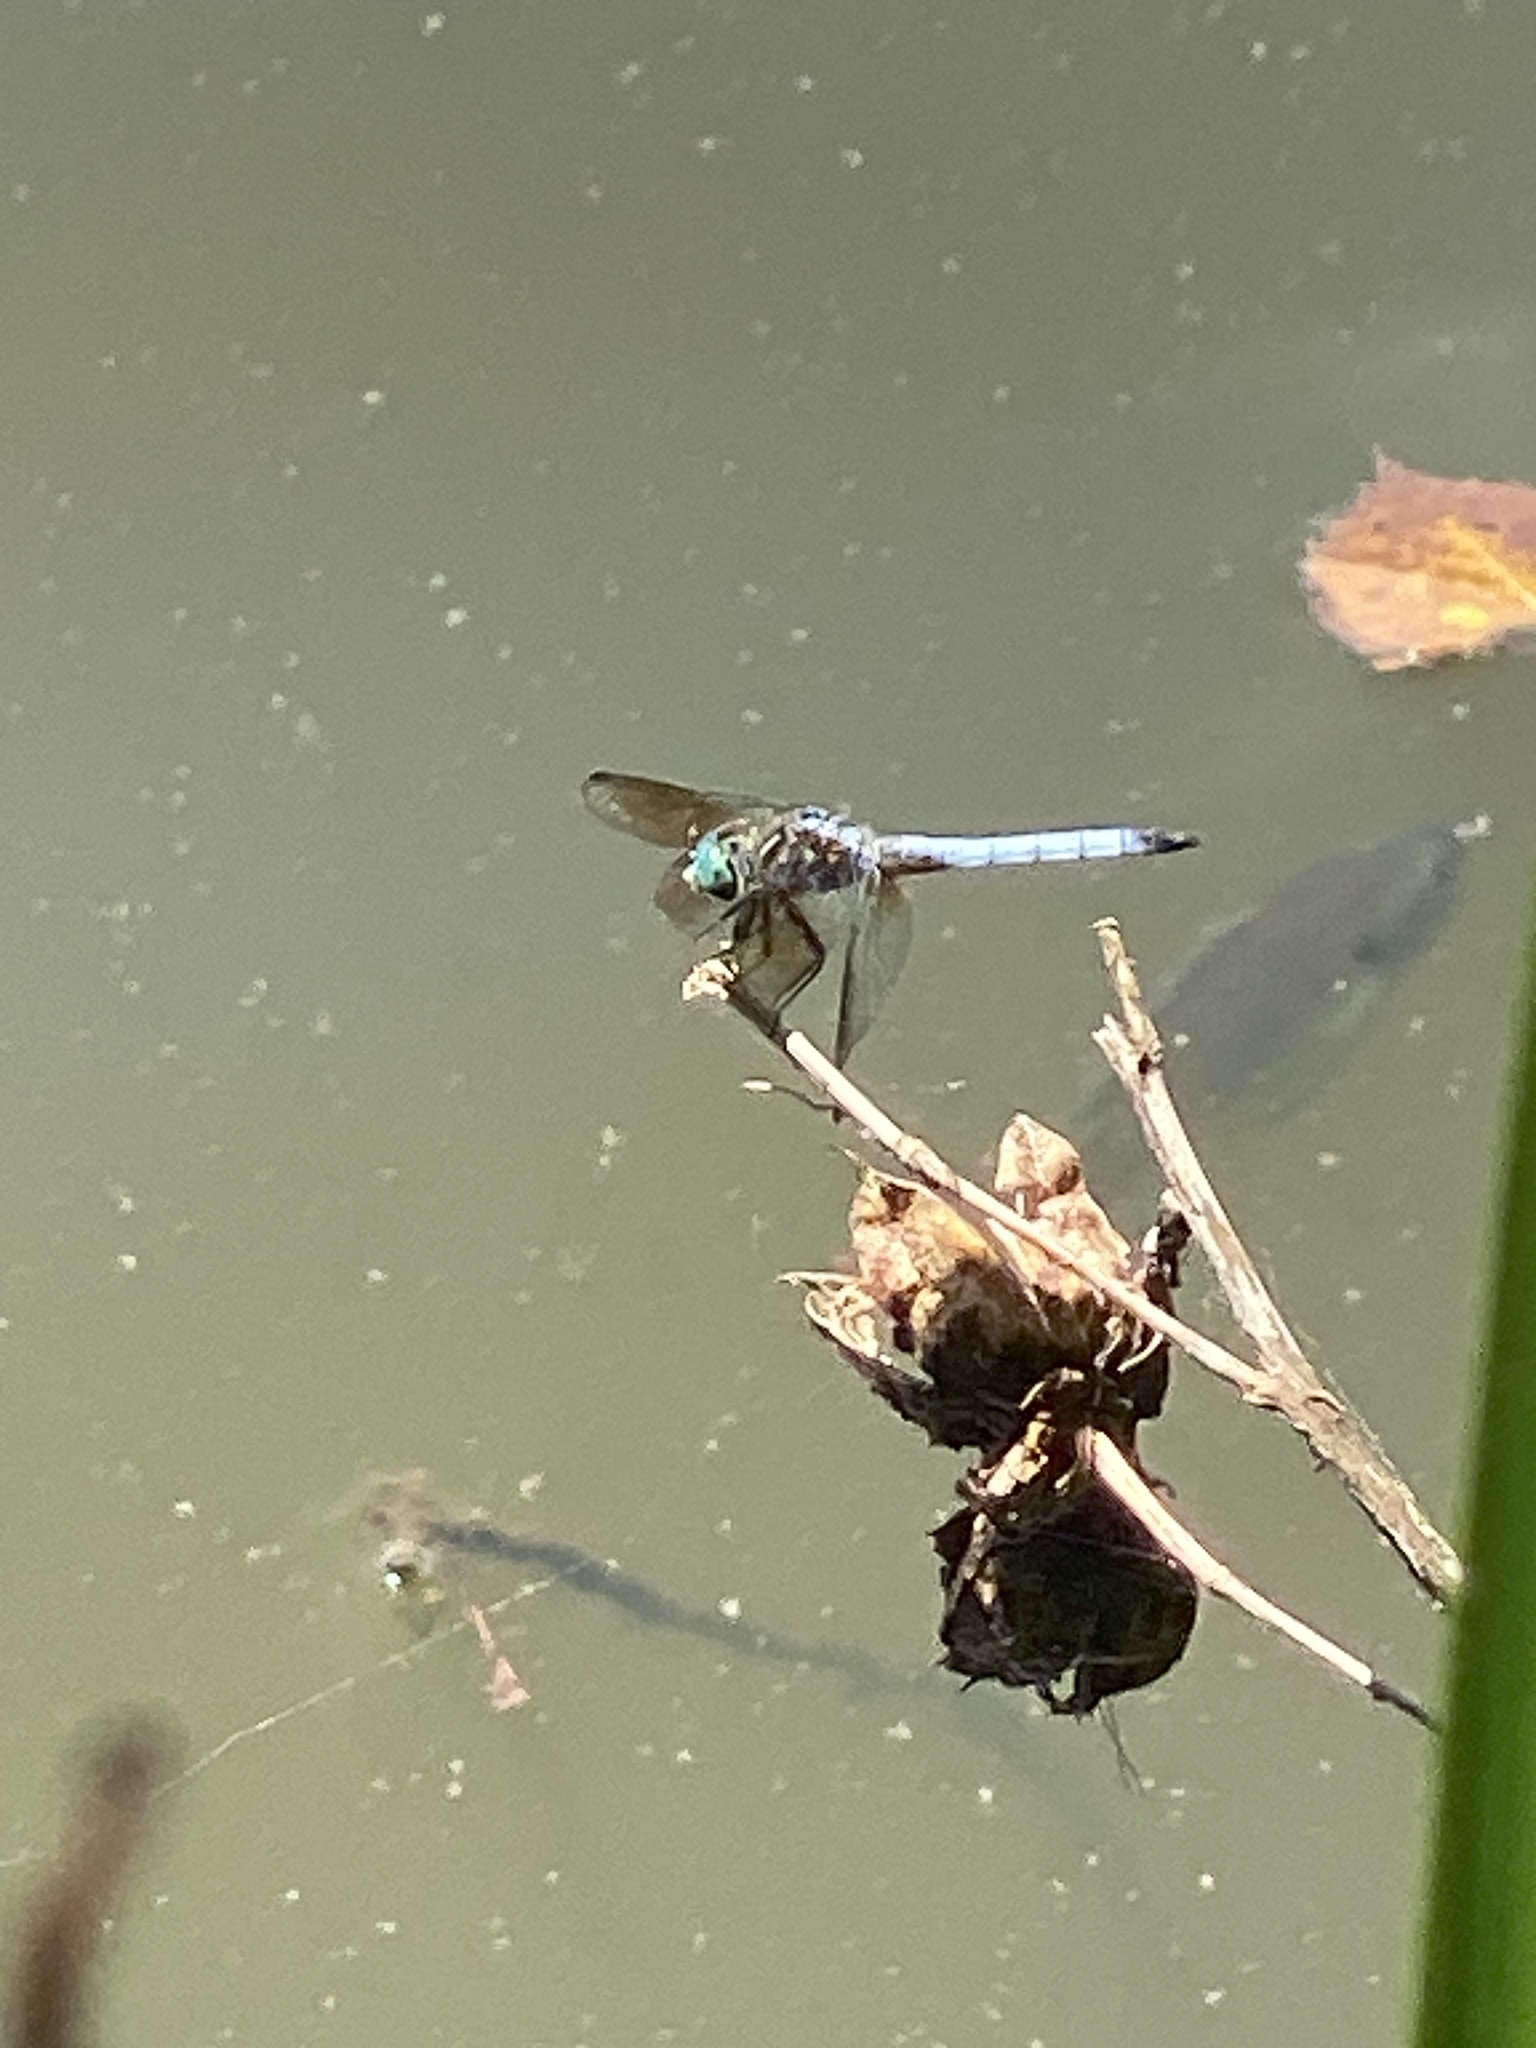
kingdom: Animalia
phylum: Arthropoda
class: Insecta
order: Odonata
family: Libellulidae
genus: Pachydiplax
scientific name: Pachydiplax longipennis
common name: Blue dasher
